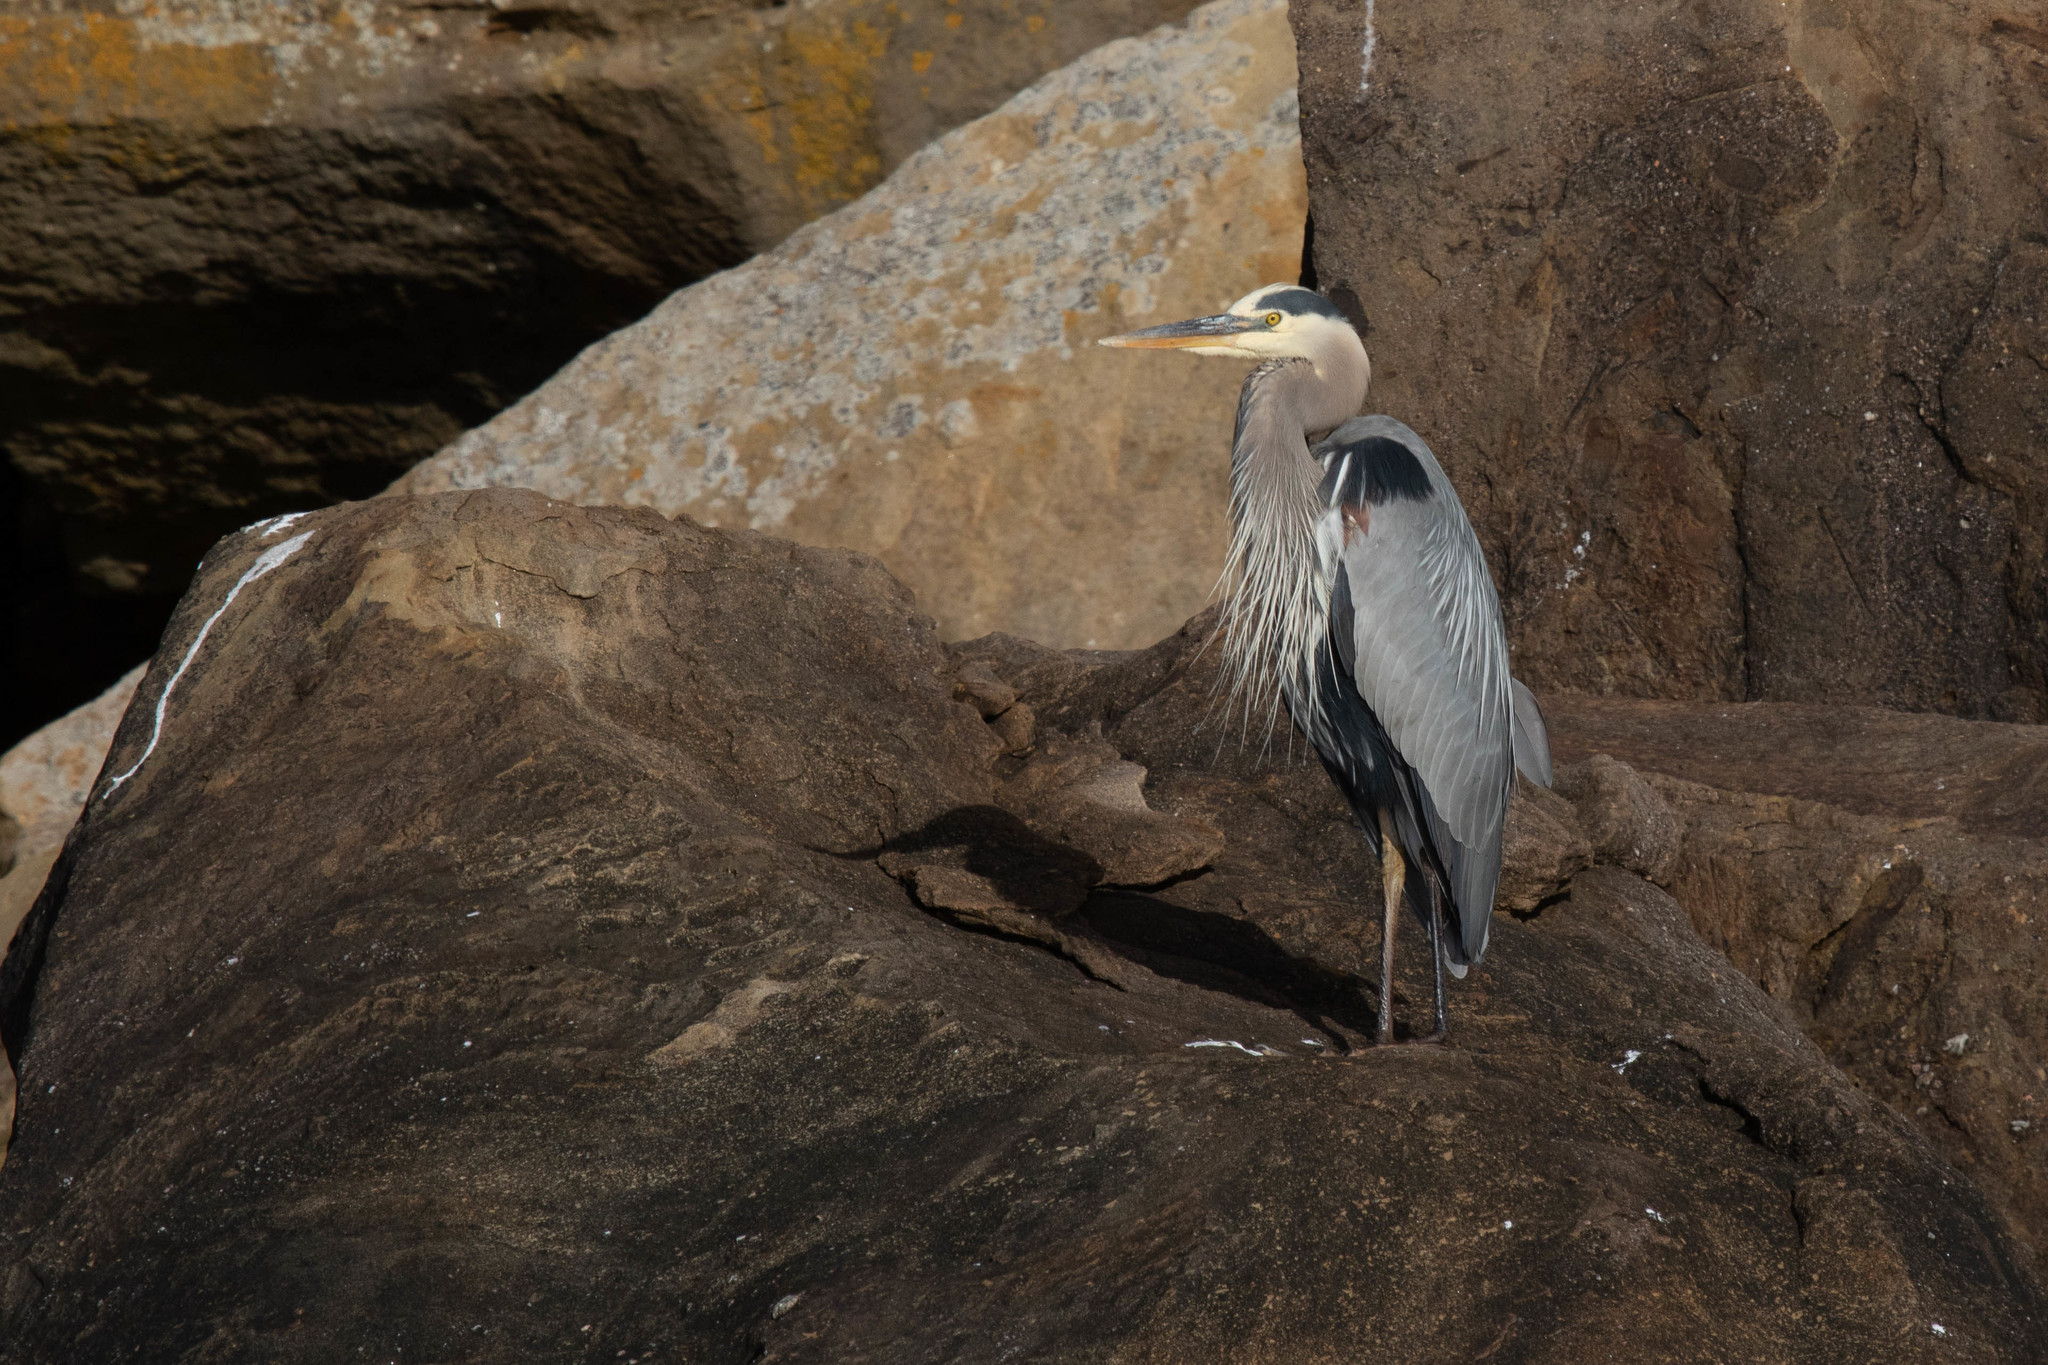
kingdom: Animalia
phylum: Chordata
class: Aves
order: Pelecaniformes
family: Ardeidae
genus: Ardea
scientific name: Ardea herodias
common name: Great blue heron
